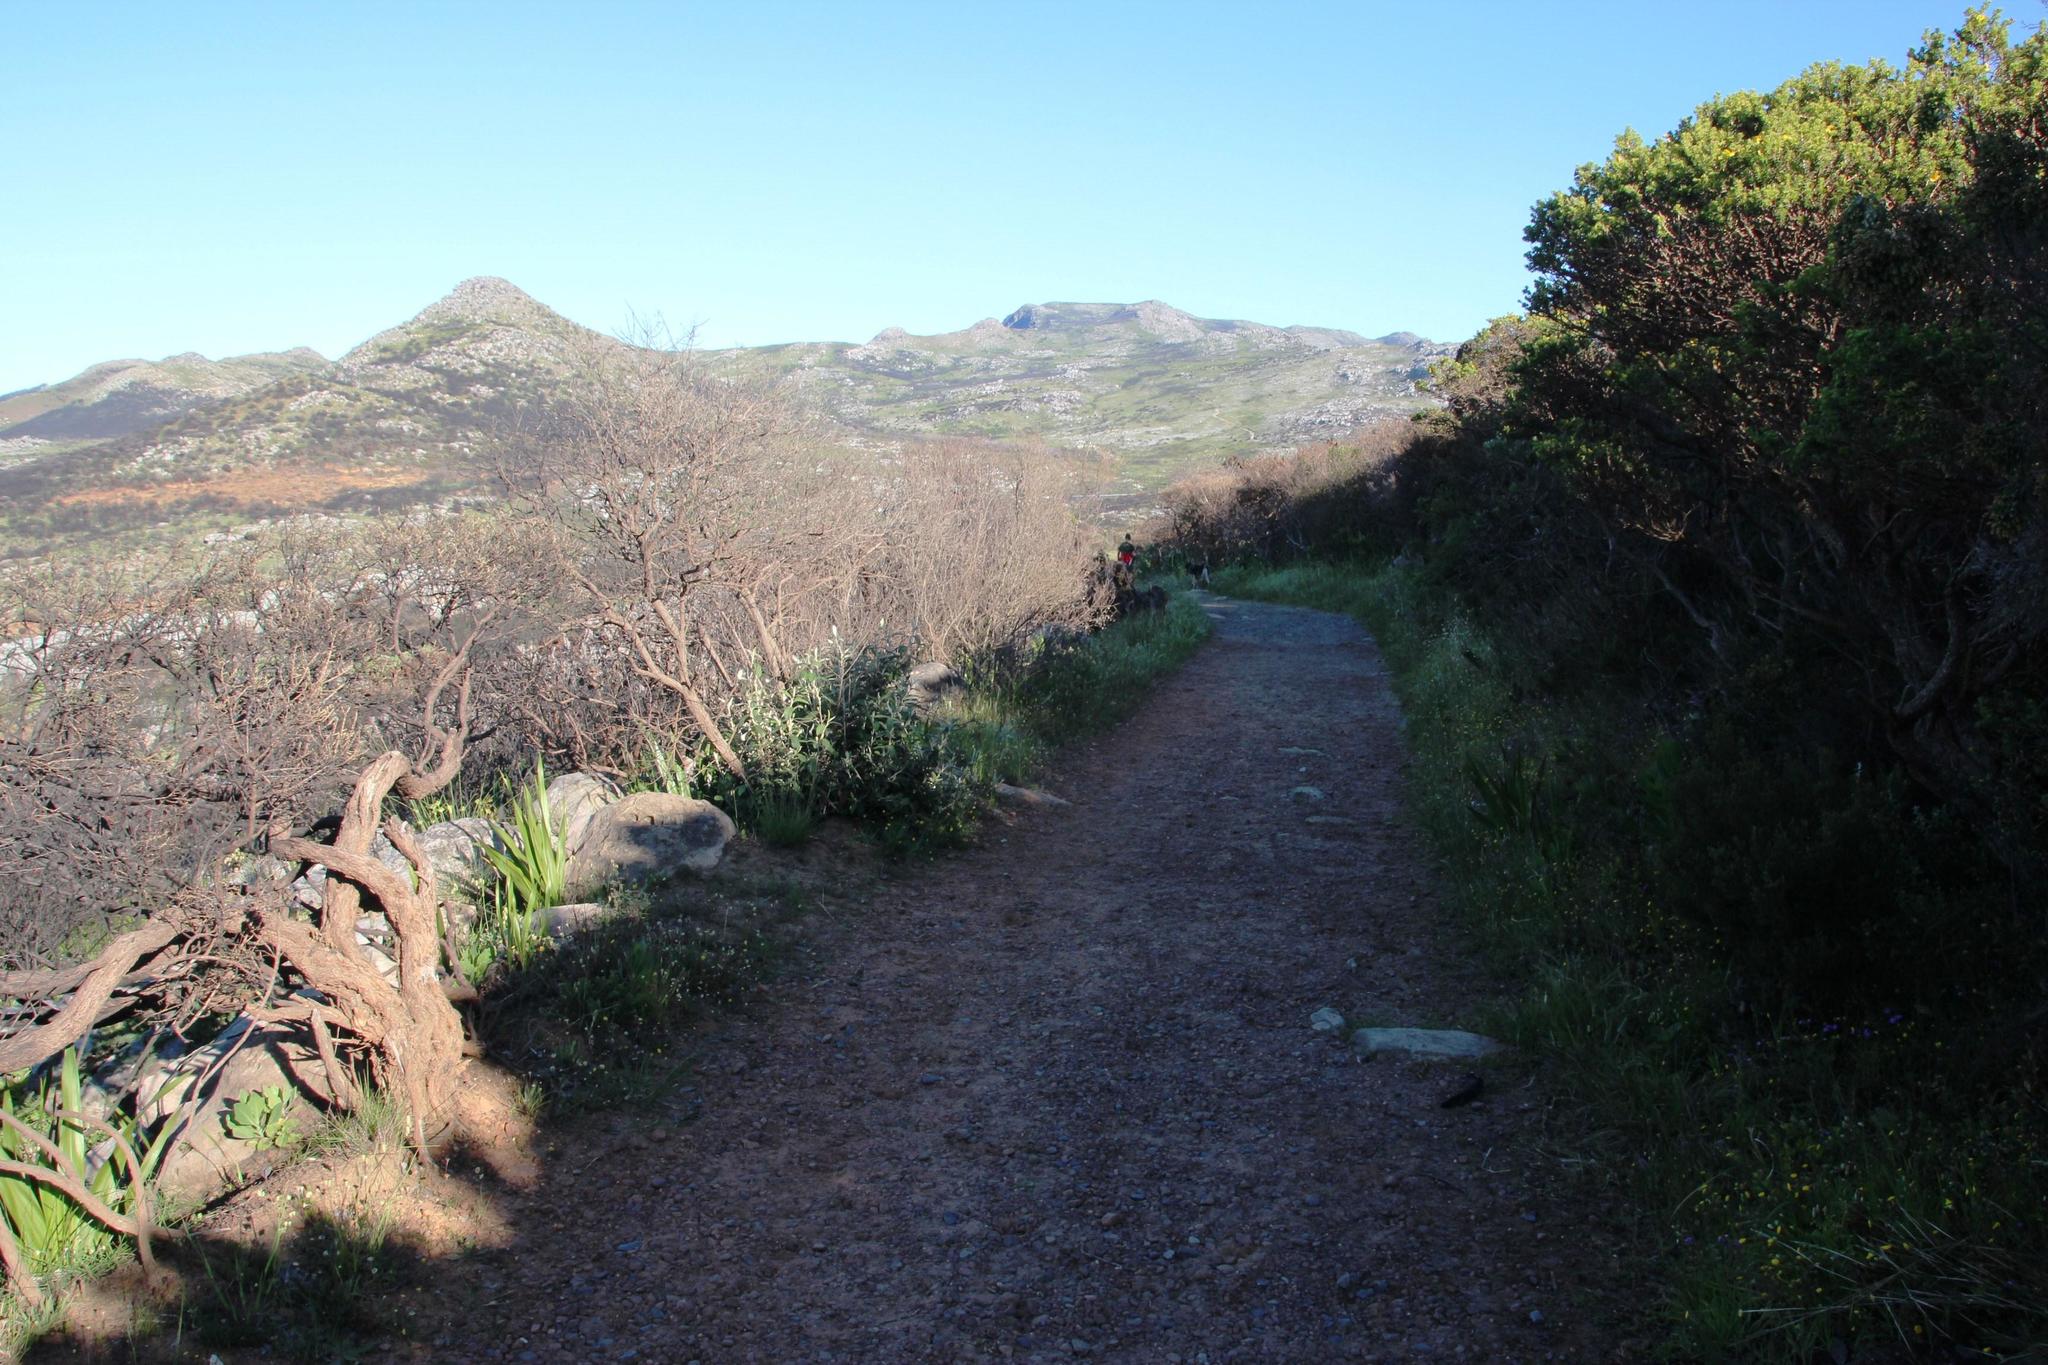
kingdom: Plantae
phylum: Tracheophyta
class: Magnoliopsida
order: Asterales
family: Asteraceae
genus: Cotula
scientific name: Cotula pruinosa
